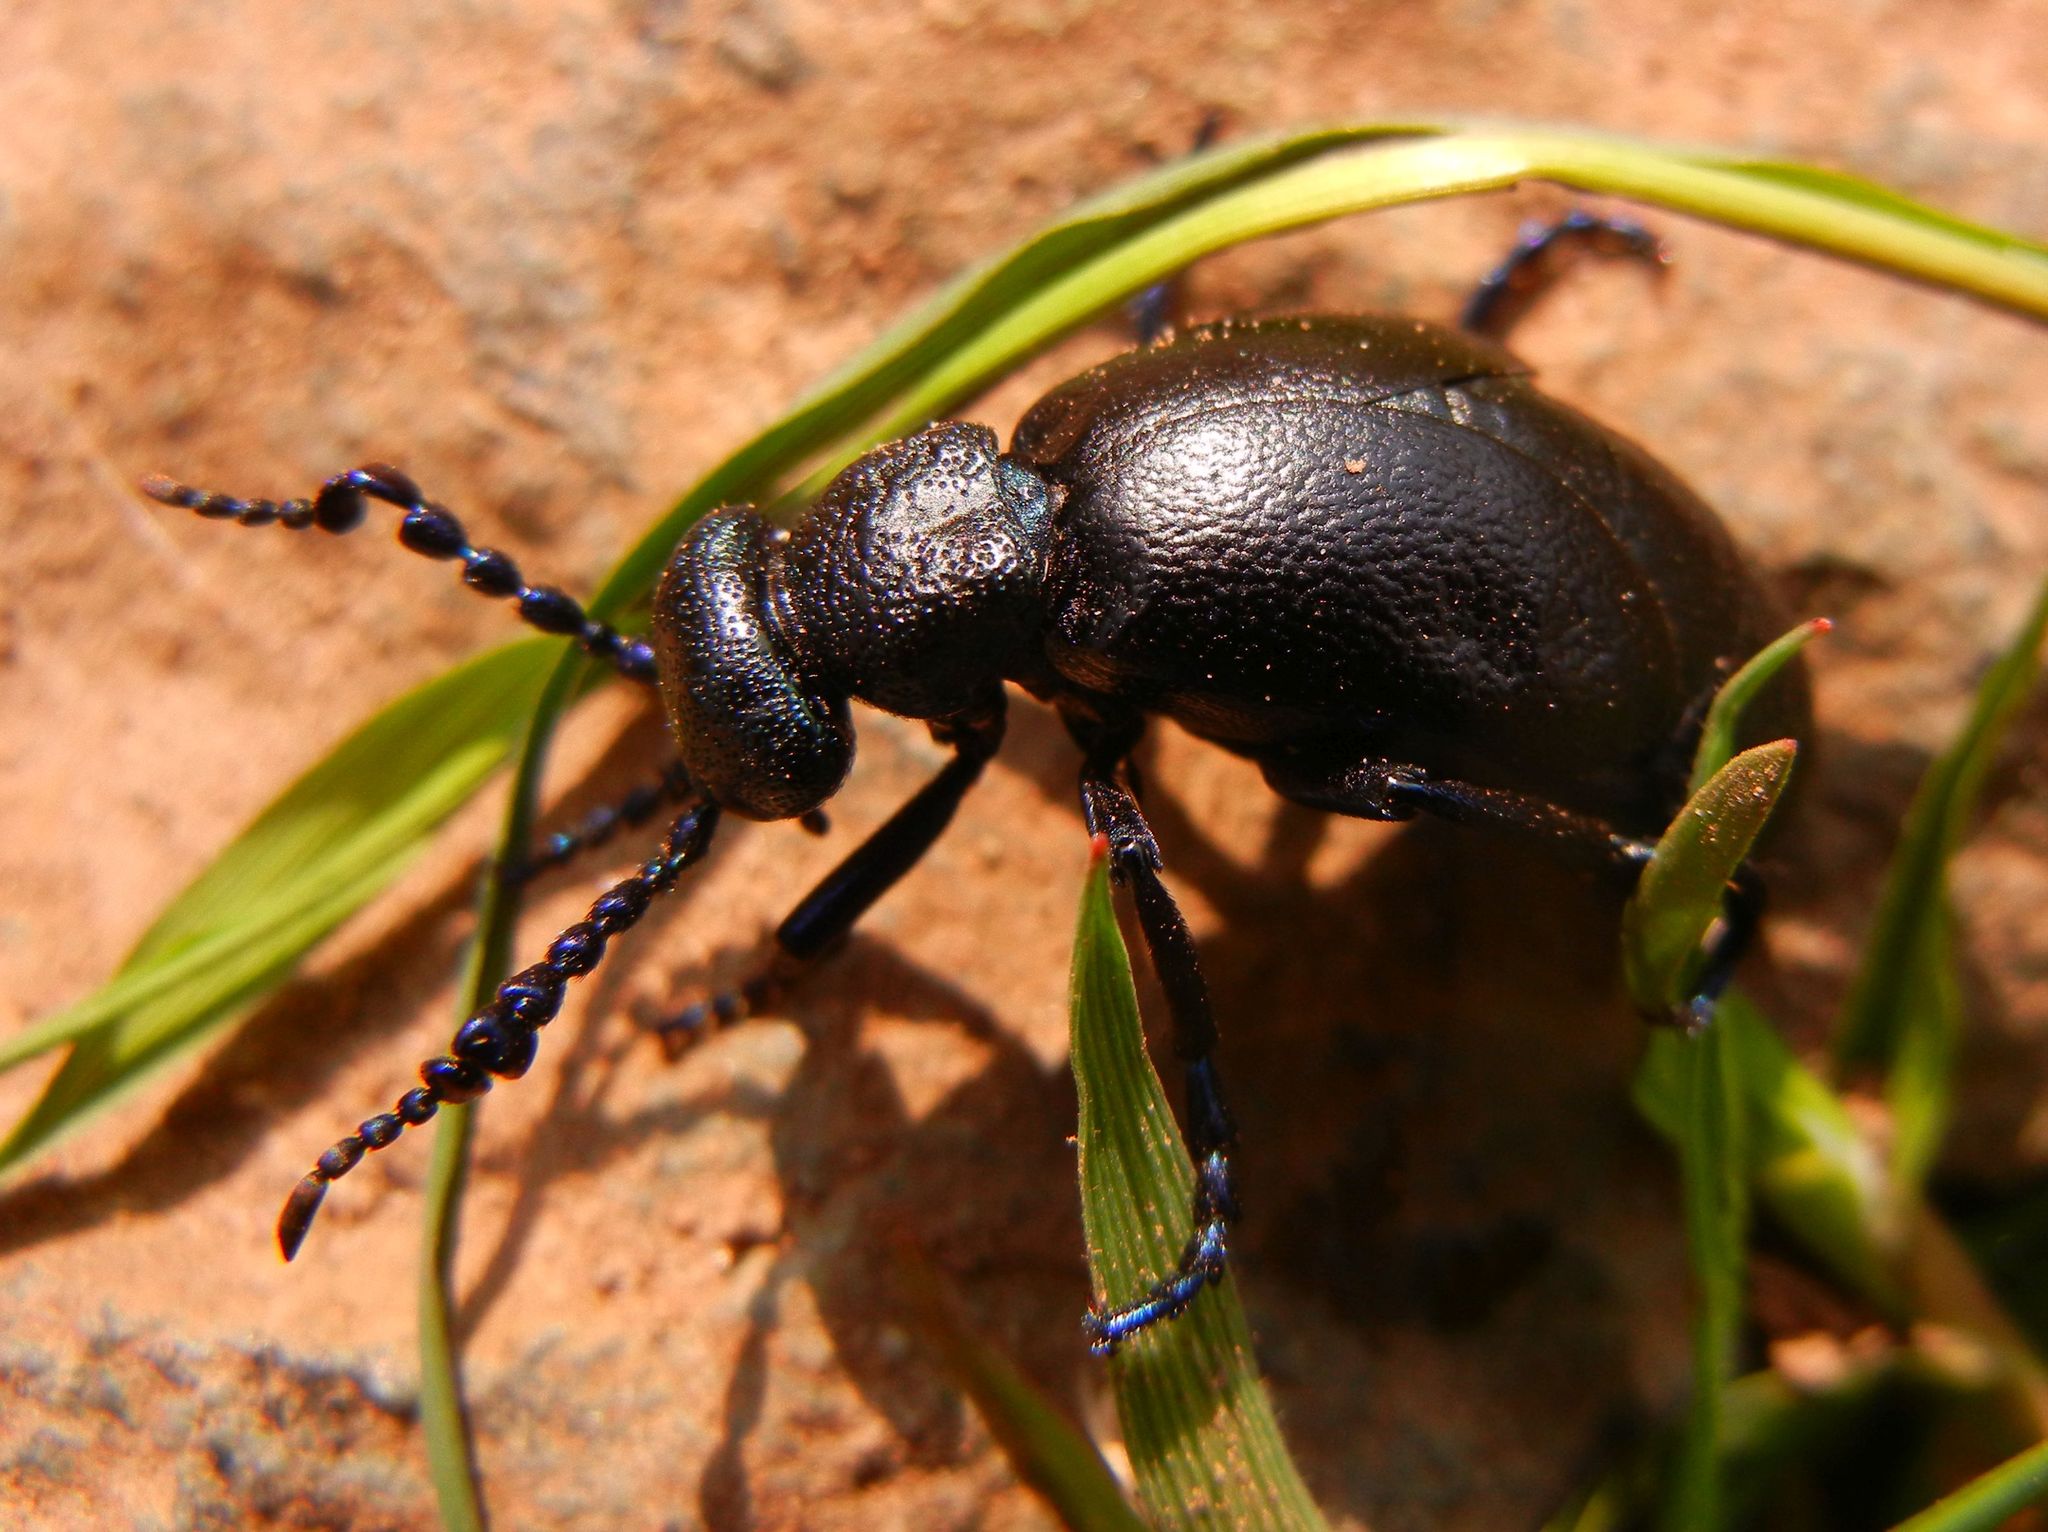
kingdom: Animalia
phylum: Arthropoda
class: Insecta
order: Coleoptera
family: Meloidae
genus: Meloe
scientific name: Meloe proscarabaeus
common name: Black oil-beetle
